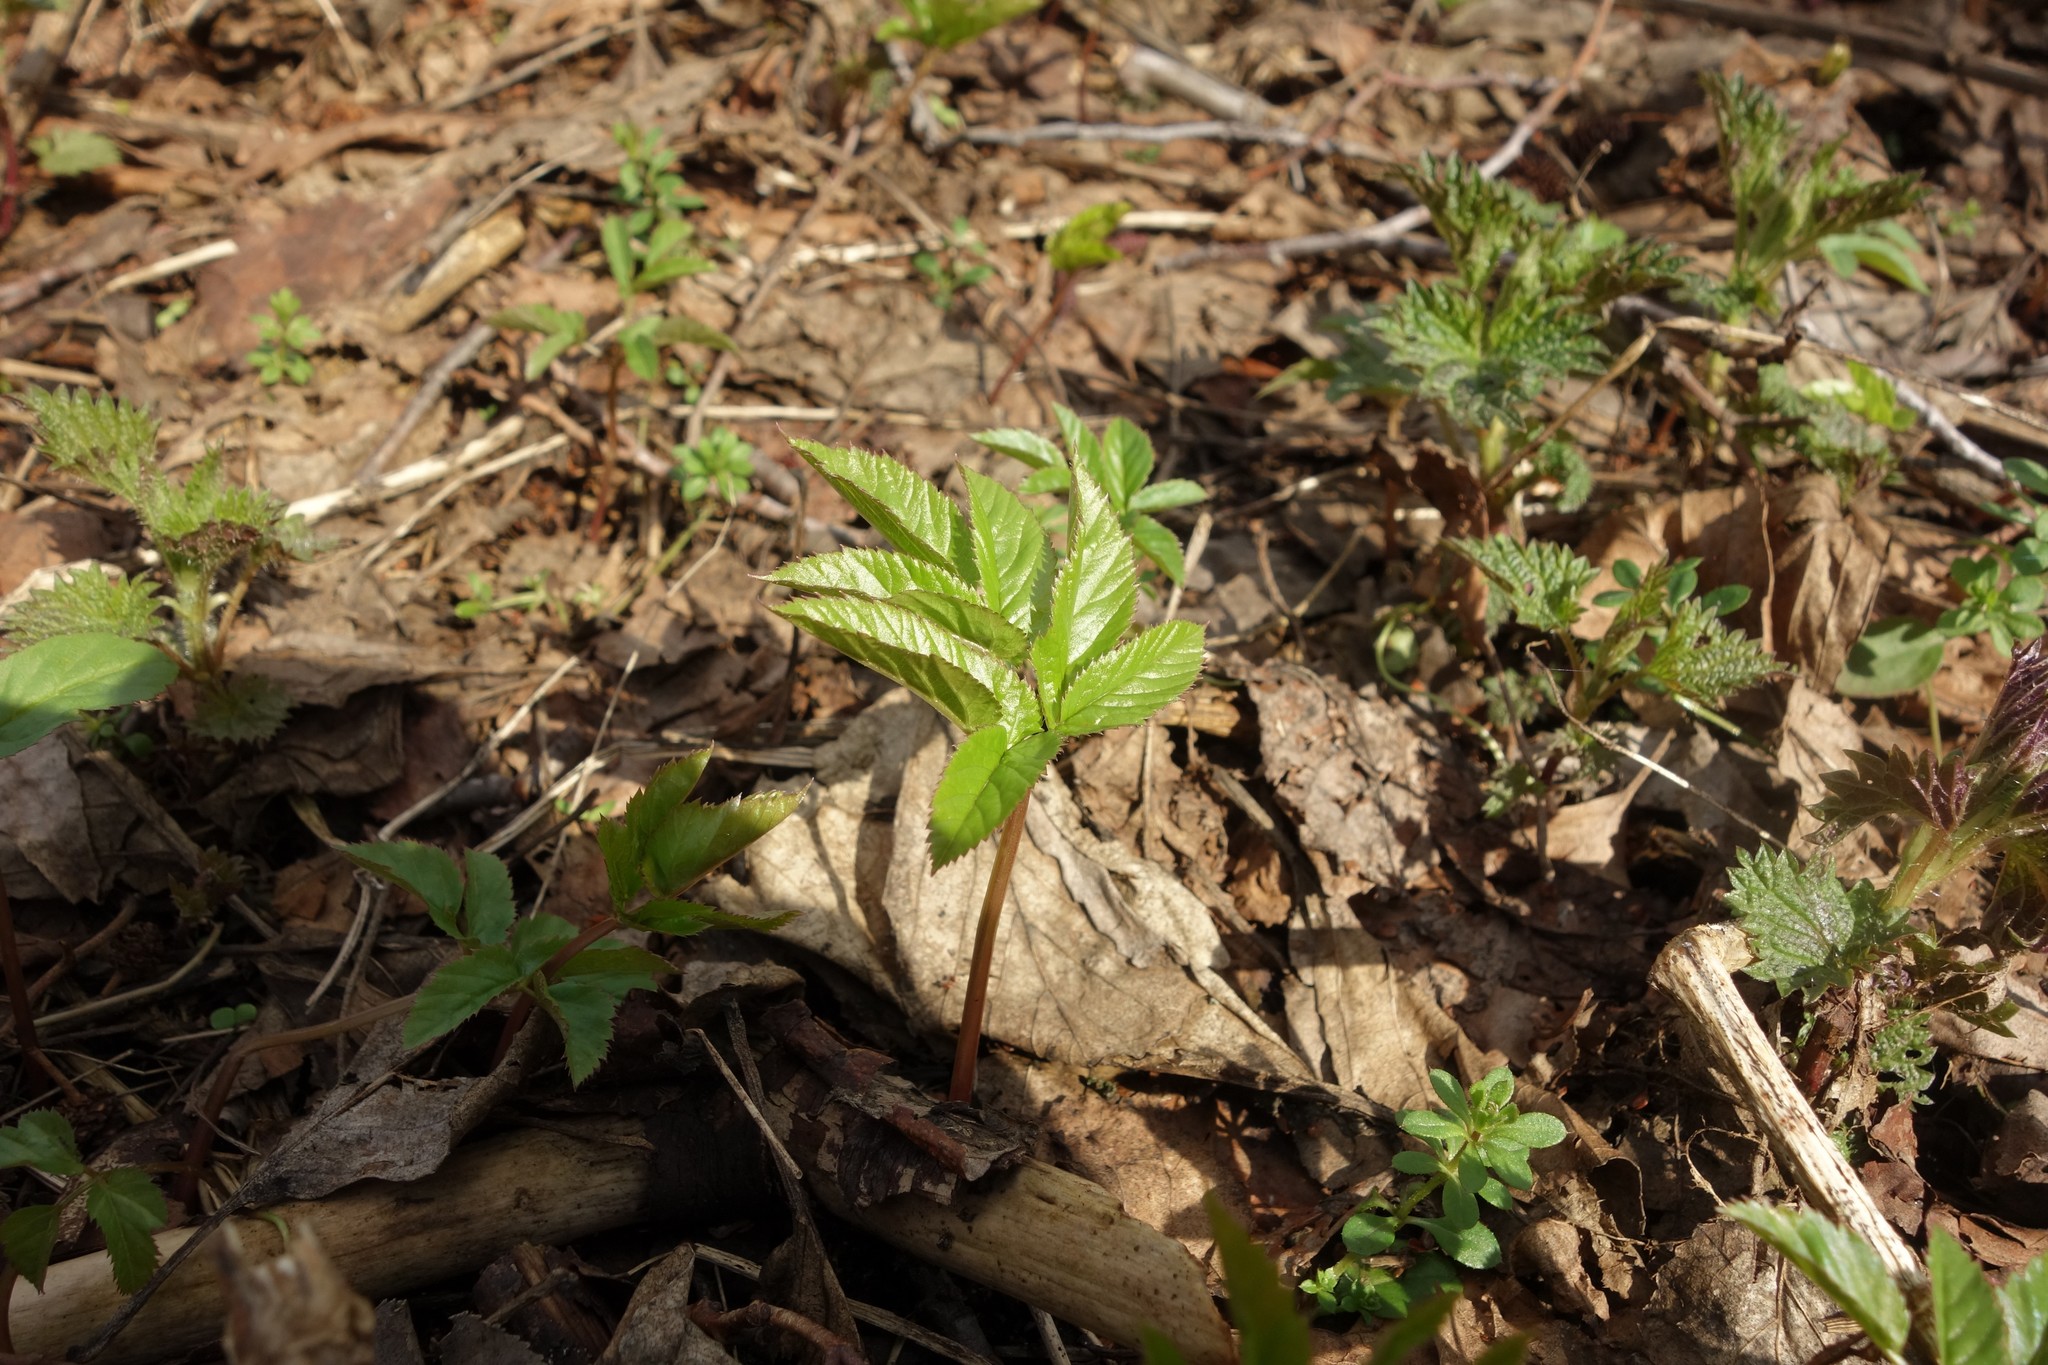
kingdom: Plantae
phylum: Tracheophyta
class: Magnoliopsida
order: Apiales
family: Apiaceae
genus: Aegopodium
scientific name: Aegopodium podagraria
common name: Ground-elder
